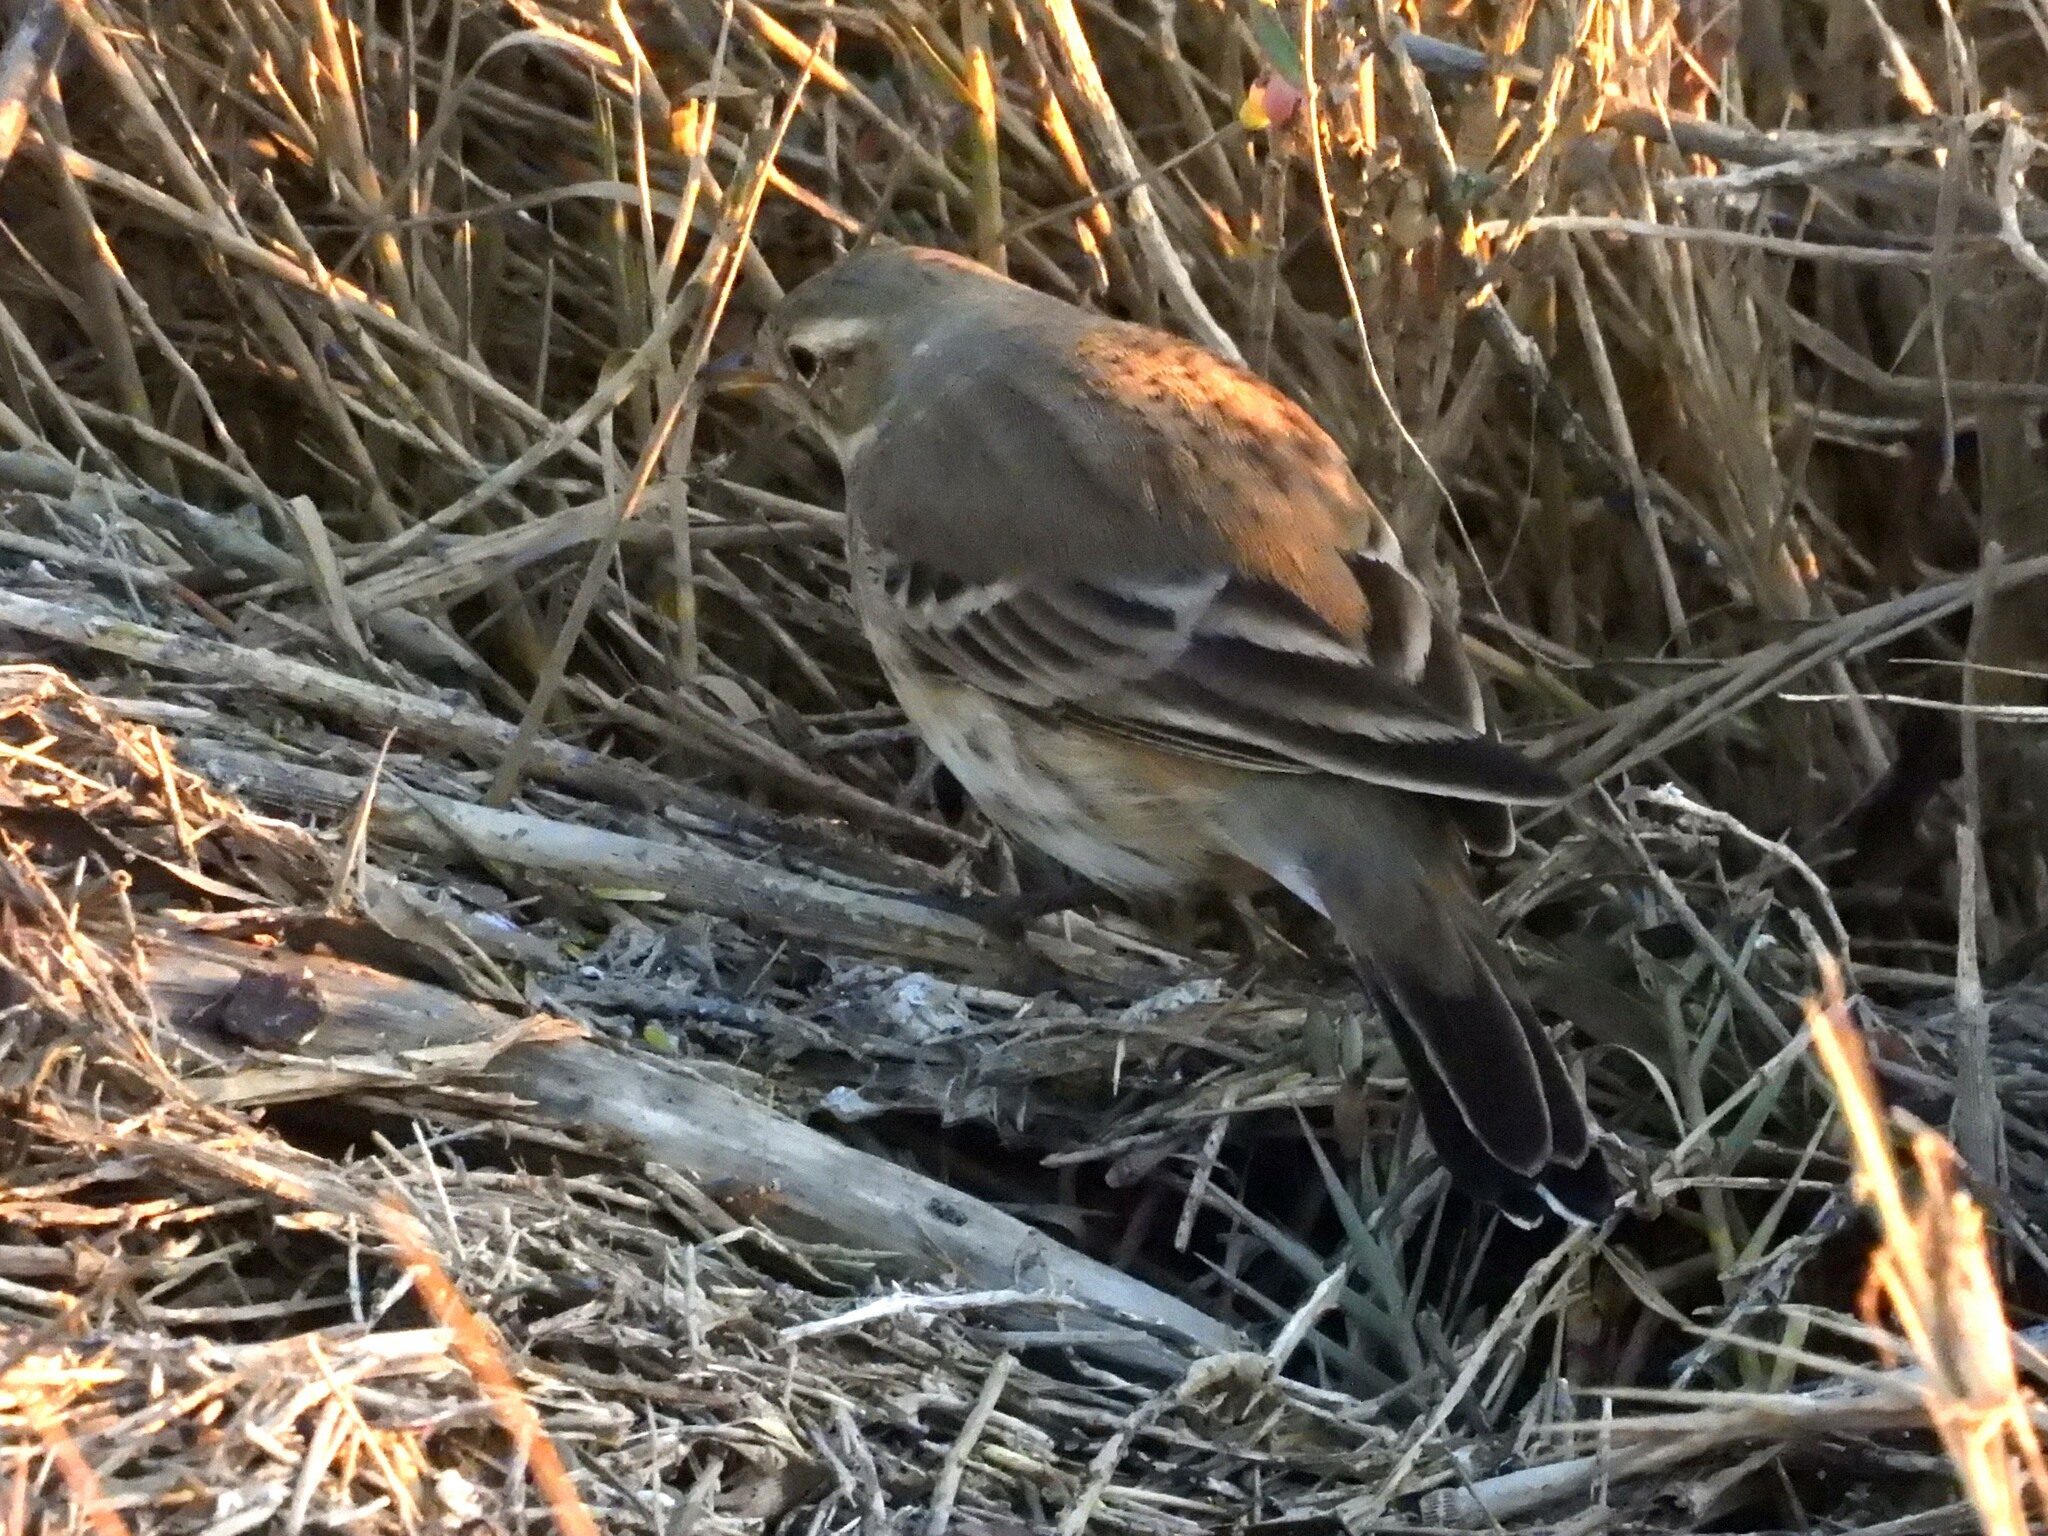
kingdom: Animalia
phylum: Chordata
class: Aves
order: Passeriformes
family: Motacillidae
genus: Anthus
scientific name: Anthus rubescens
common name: Buff-bellied pipit
